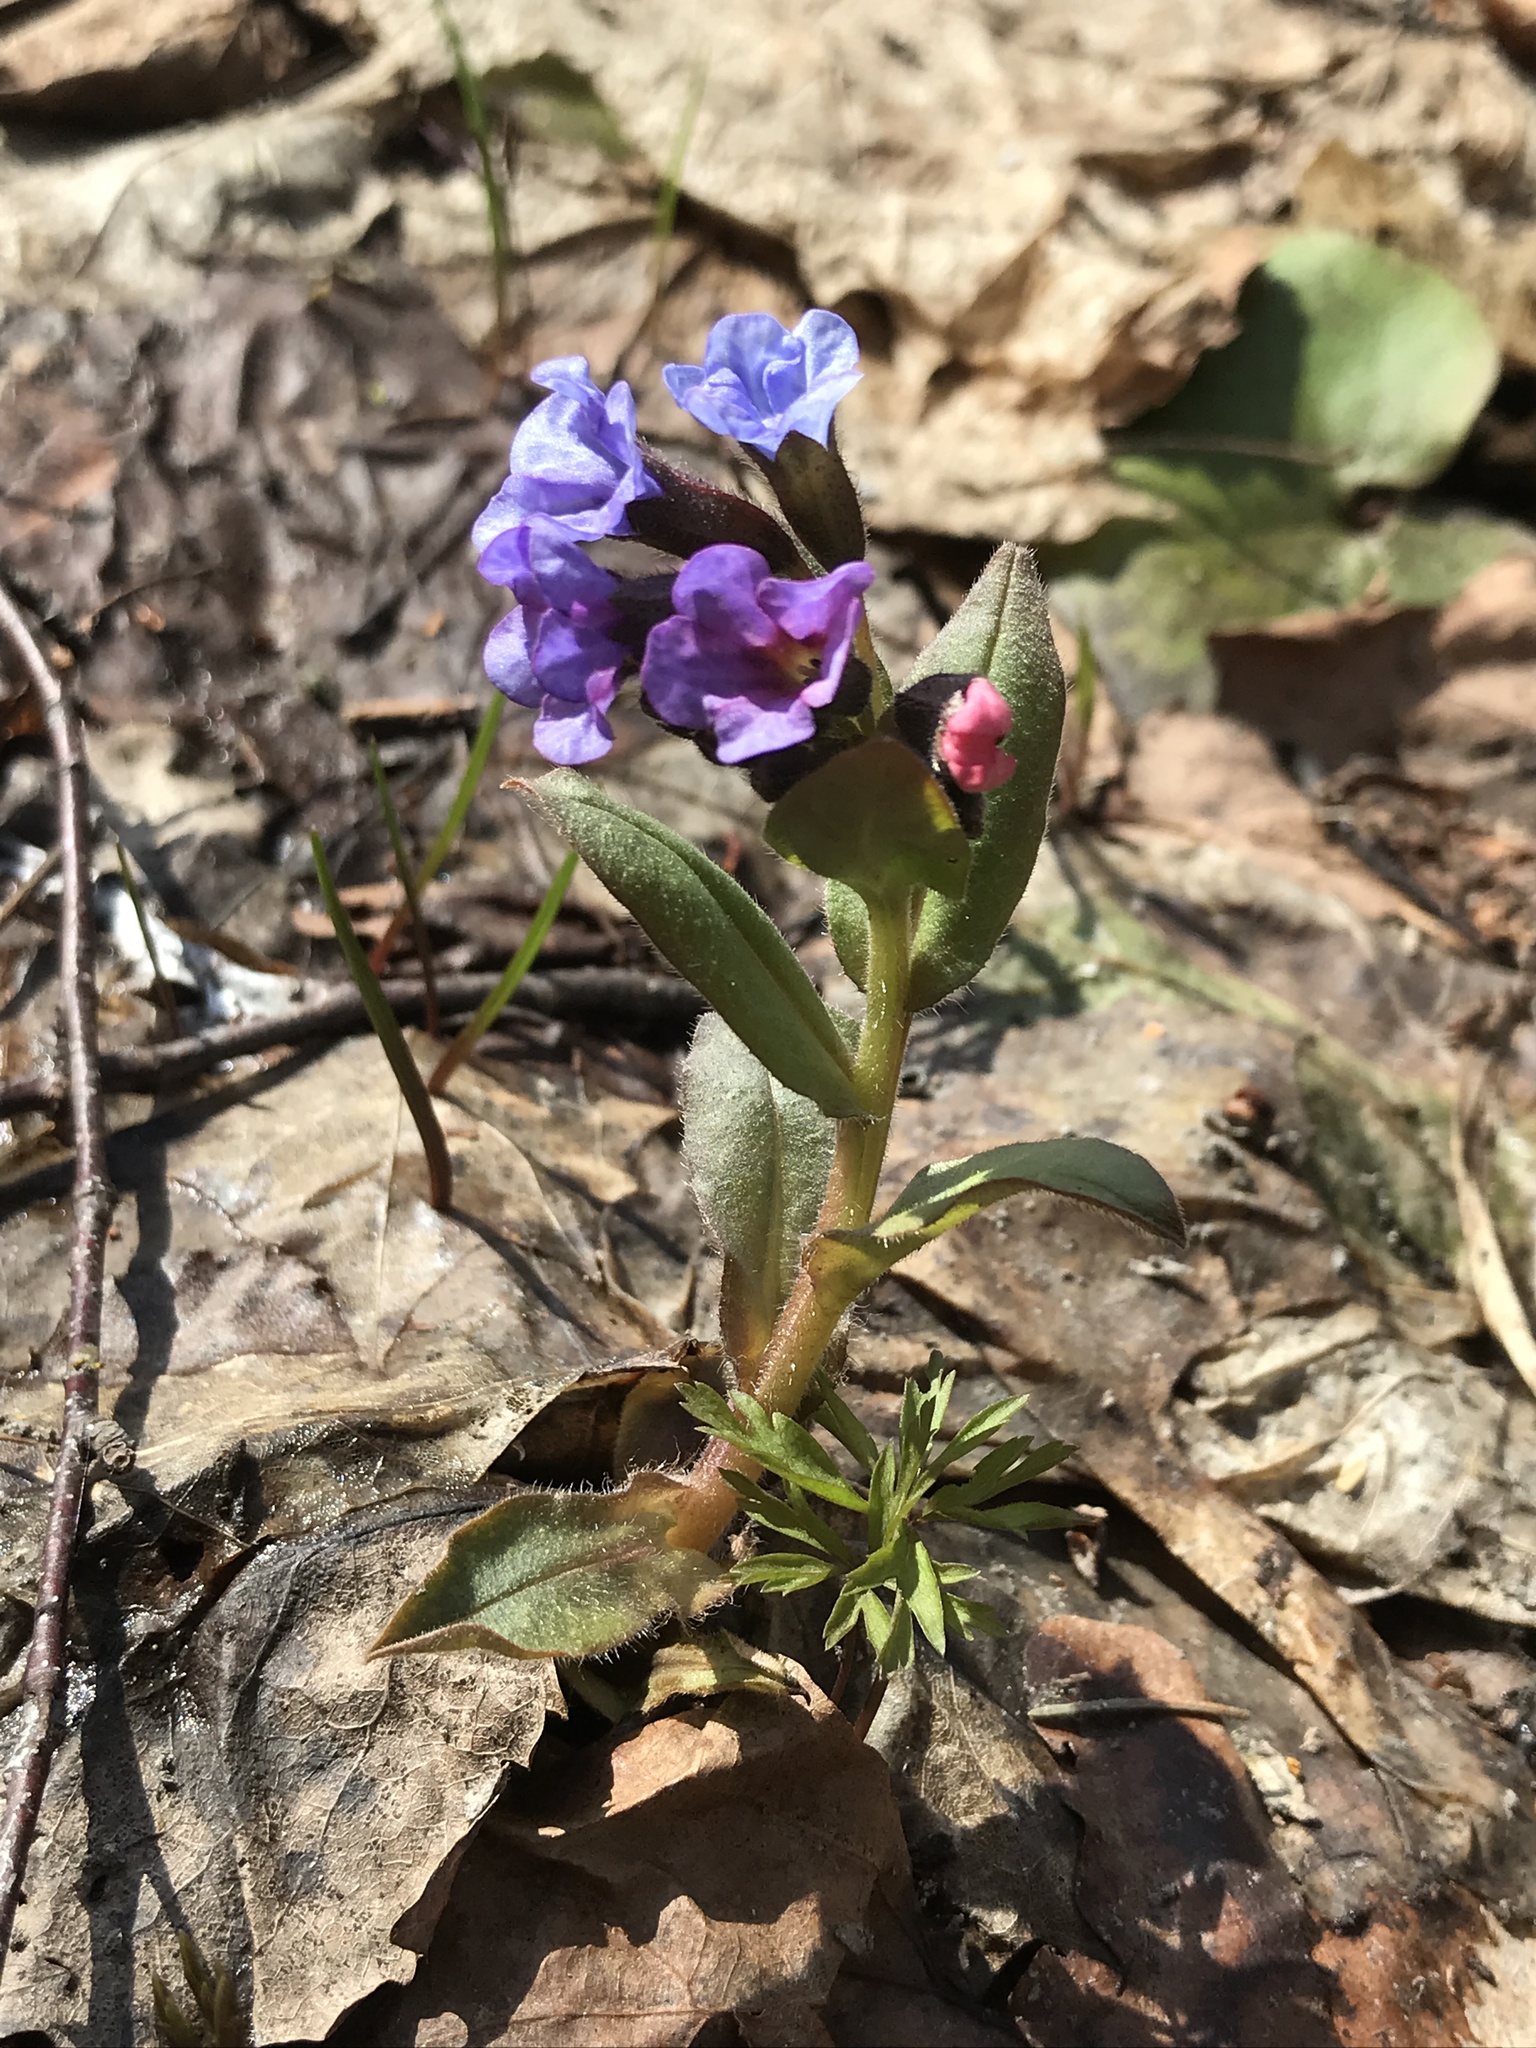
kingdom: Plantae
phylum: Tracheophyta
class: Magnoliopsida
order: Boraginales
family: Boraginaceae
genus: Pulmonaria
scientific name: Pulmonaria obscura
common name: Suffolk lungwort
